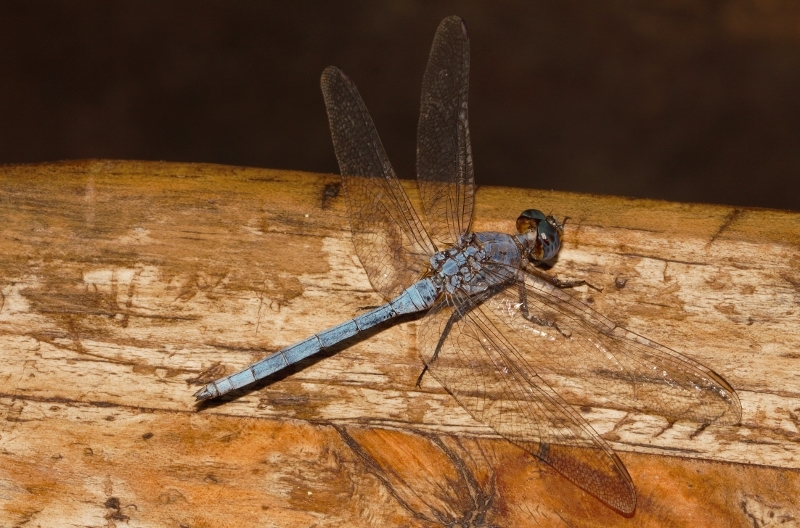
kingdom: Animalia
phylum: Arthropoda
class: Insecta
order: Odonata
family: Libellulidae
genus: Orthetrum
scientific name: Orthetrum chrysostigma
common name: Epaulet skimmer
